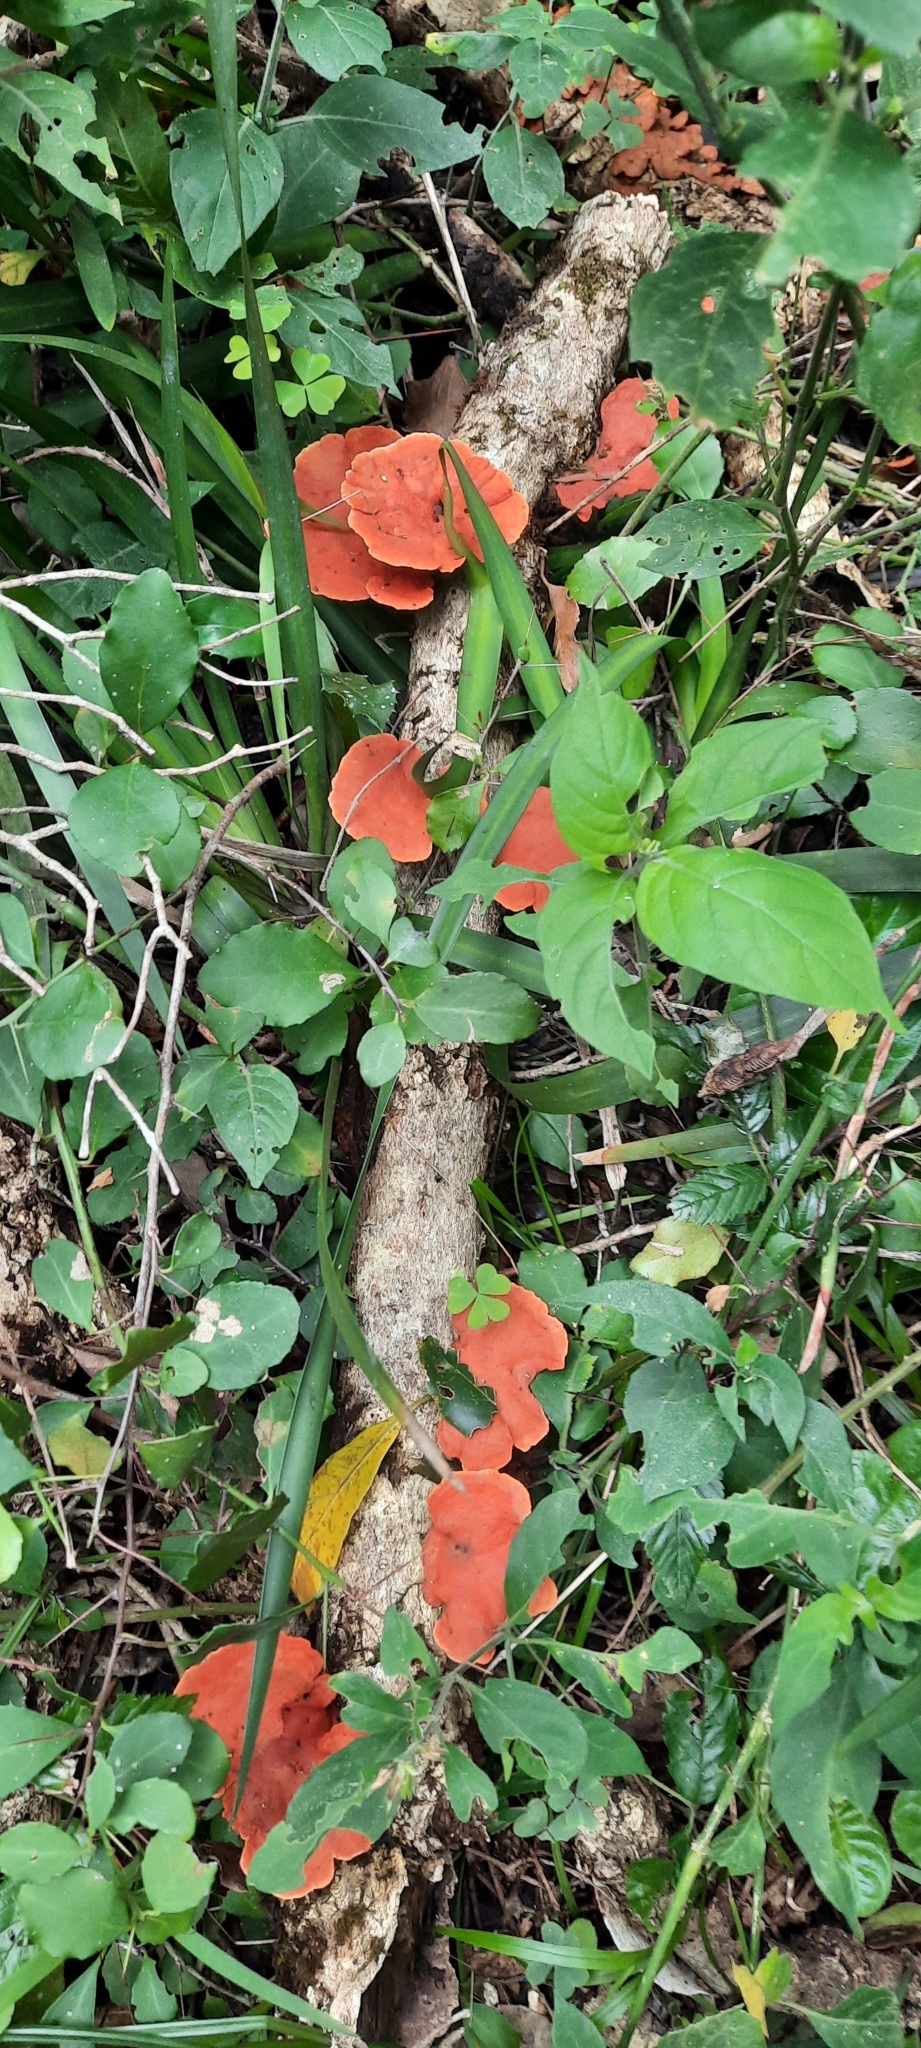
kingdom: Fungi
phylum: Basidiomycota
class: Agaricomycetes
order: Polyporales
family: Polyporaceae
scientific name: Polyporaceae
